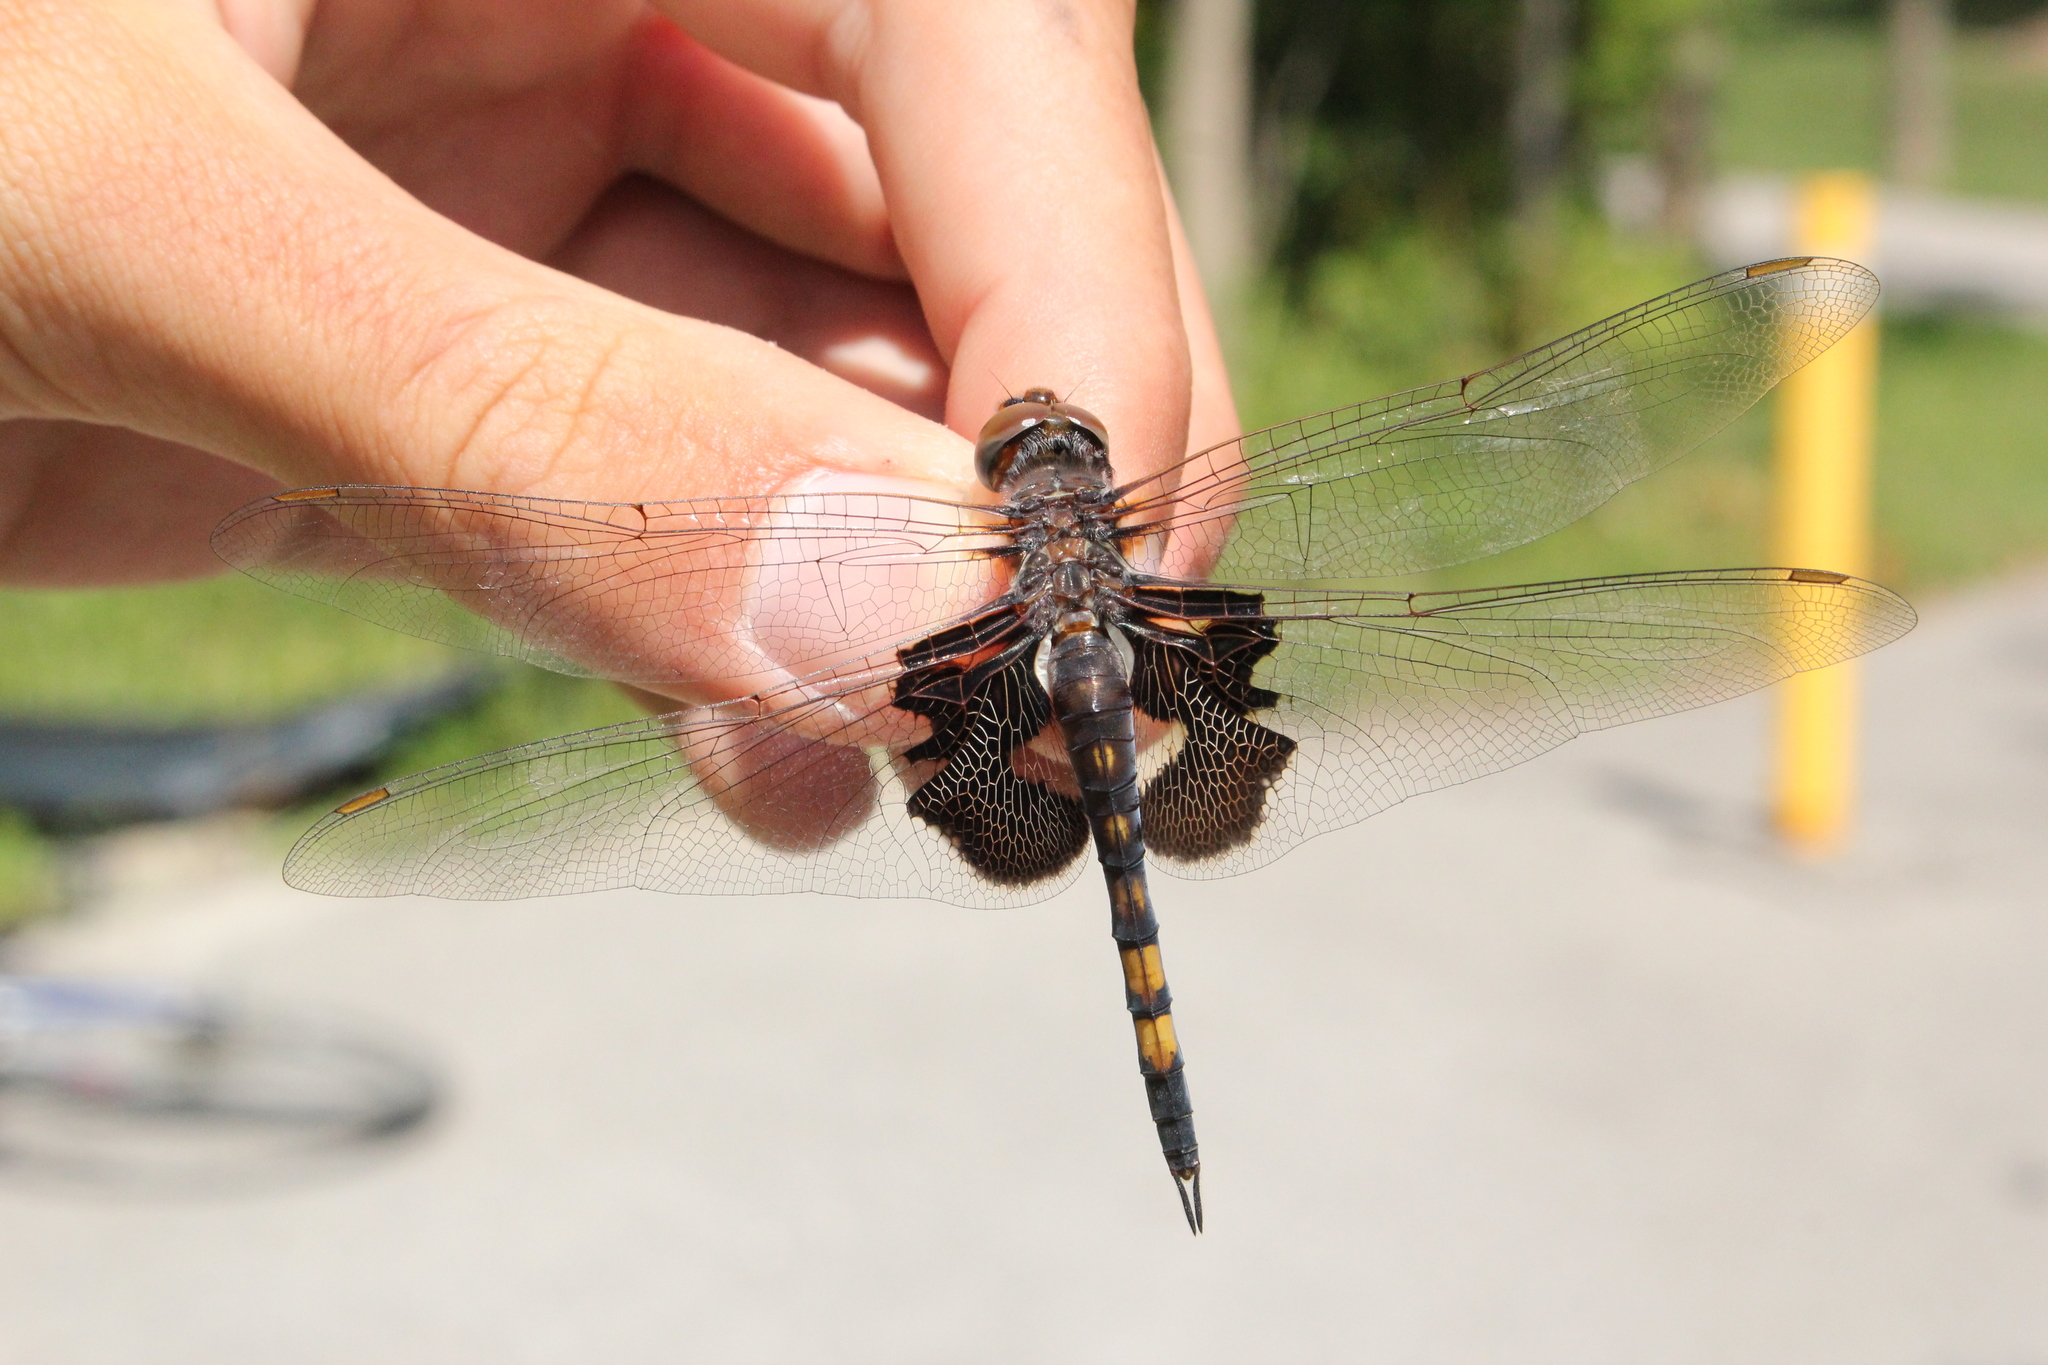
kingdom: Animalia
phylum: Arthropoda
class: Insecta
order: Odonata
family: Libellulidae
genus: Tramea
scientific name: Tramea lacerata
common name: Black saddlebags
